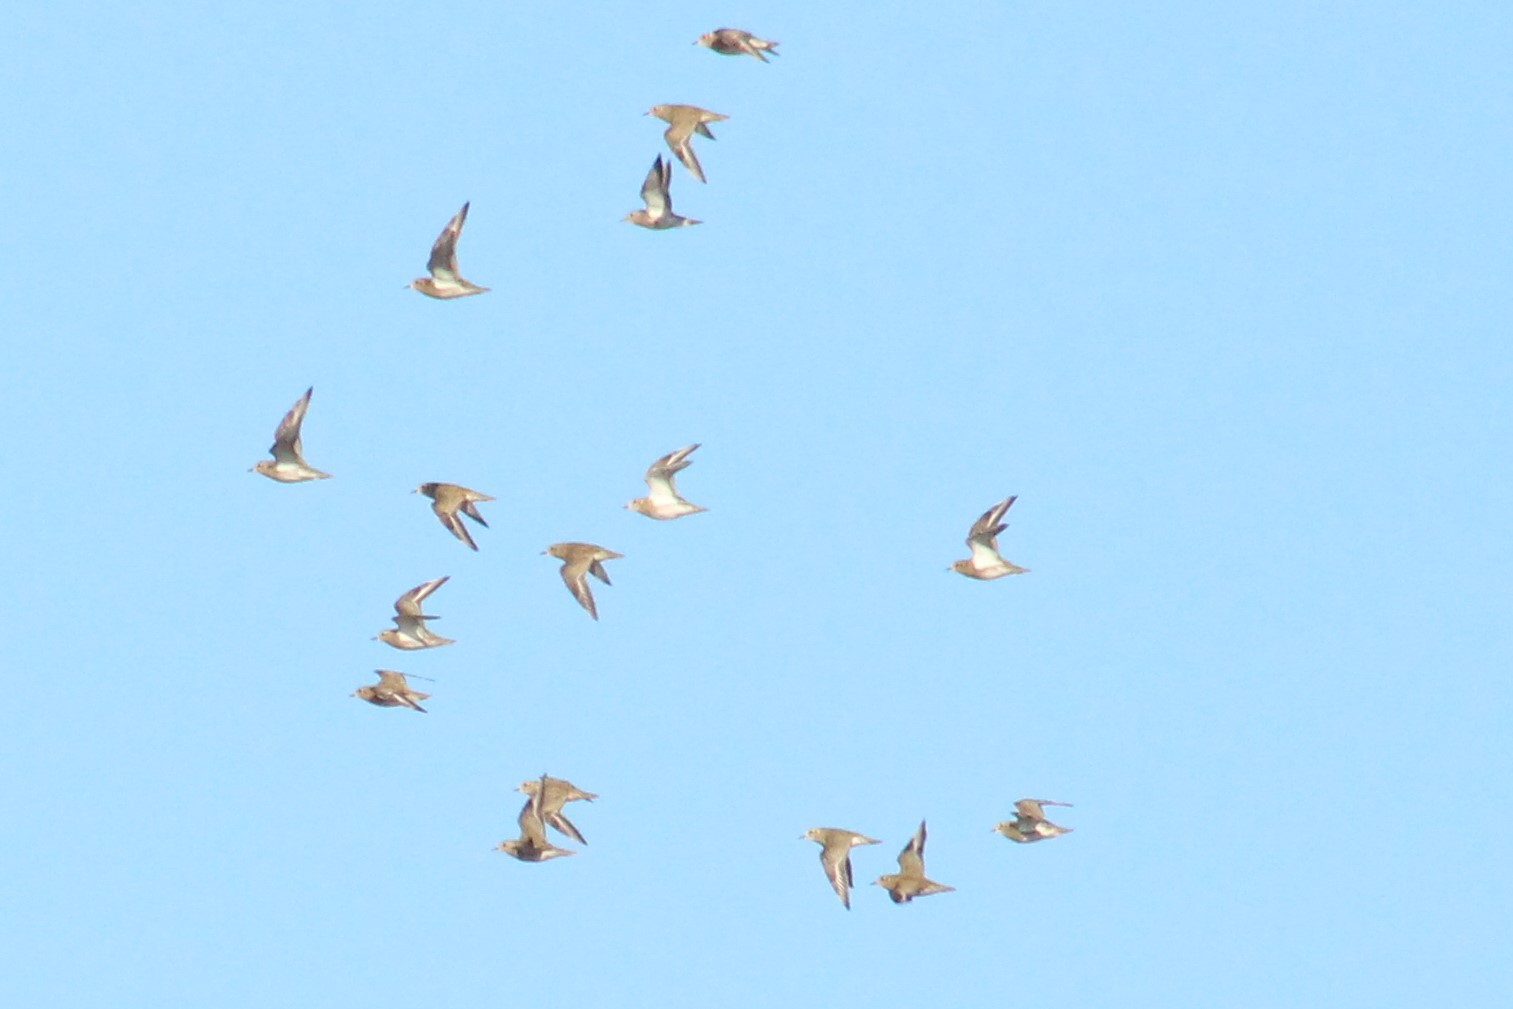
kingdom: Animalia
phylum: Chordata
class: Aves
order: Charadriiformes
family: Charadriidae
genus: Pluvialis
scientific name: Pluvialis apricaria
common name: European golden plover
